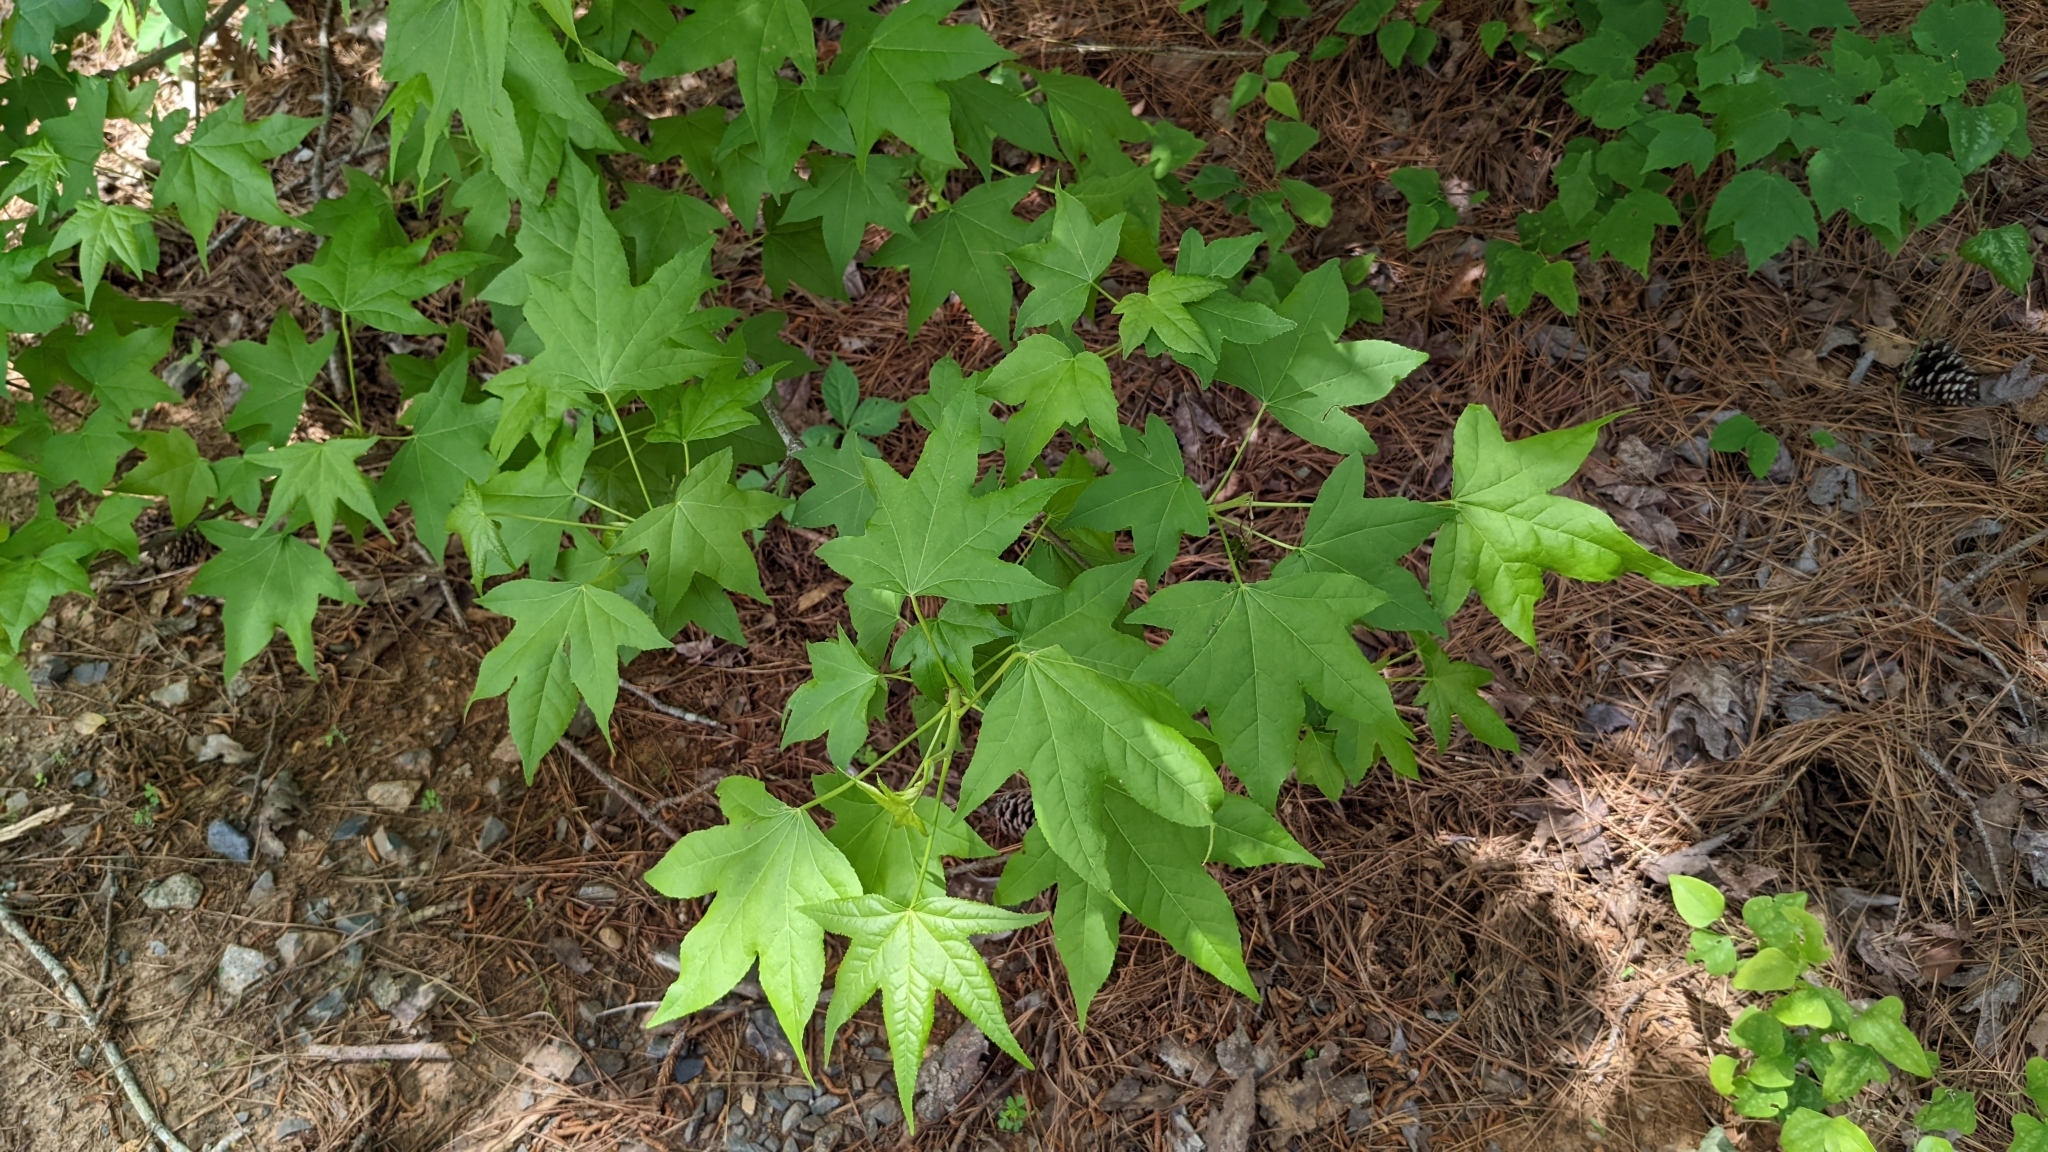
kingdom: Plantae
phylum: Tracheophyta
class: Magnoliopsida
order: Saxifragales
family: Altingiaceae
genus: Liquidambar
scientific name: Liquidambar styraciflua
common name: Sweet gum
